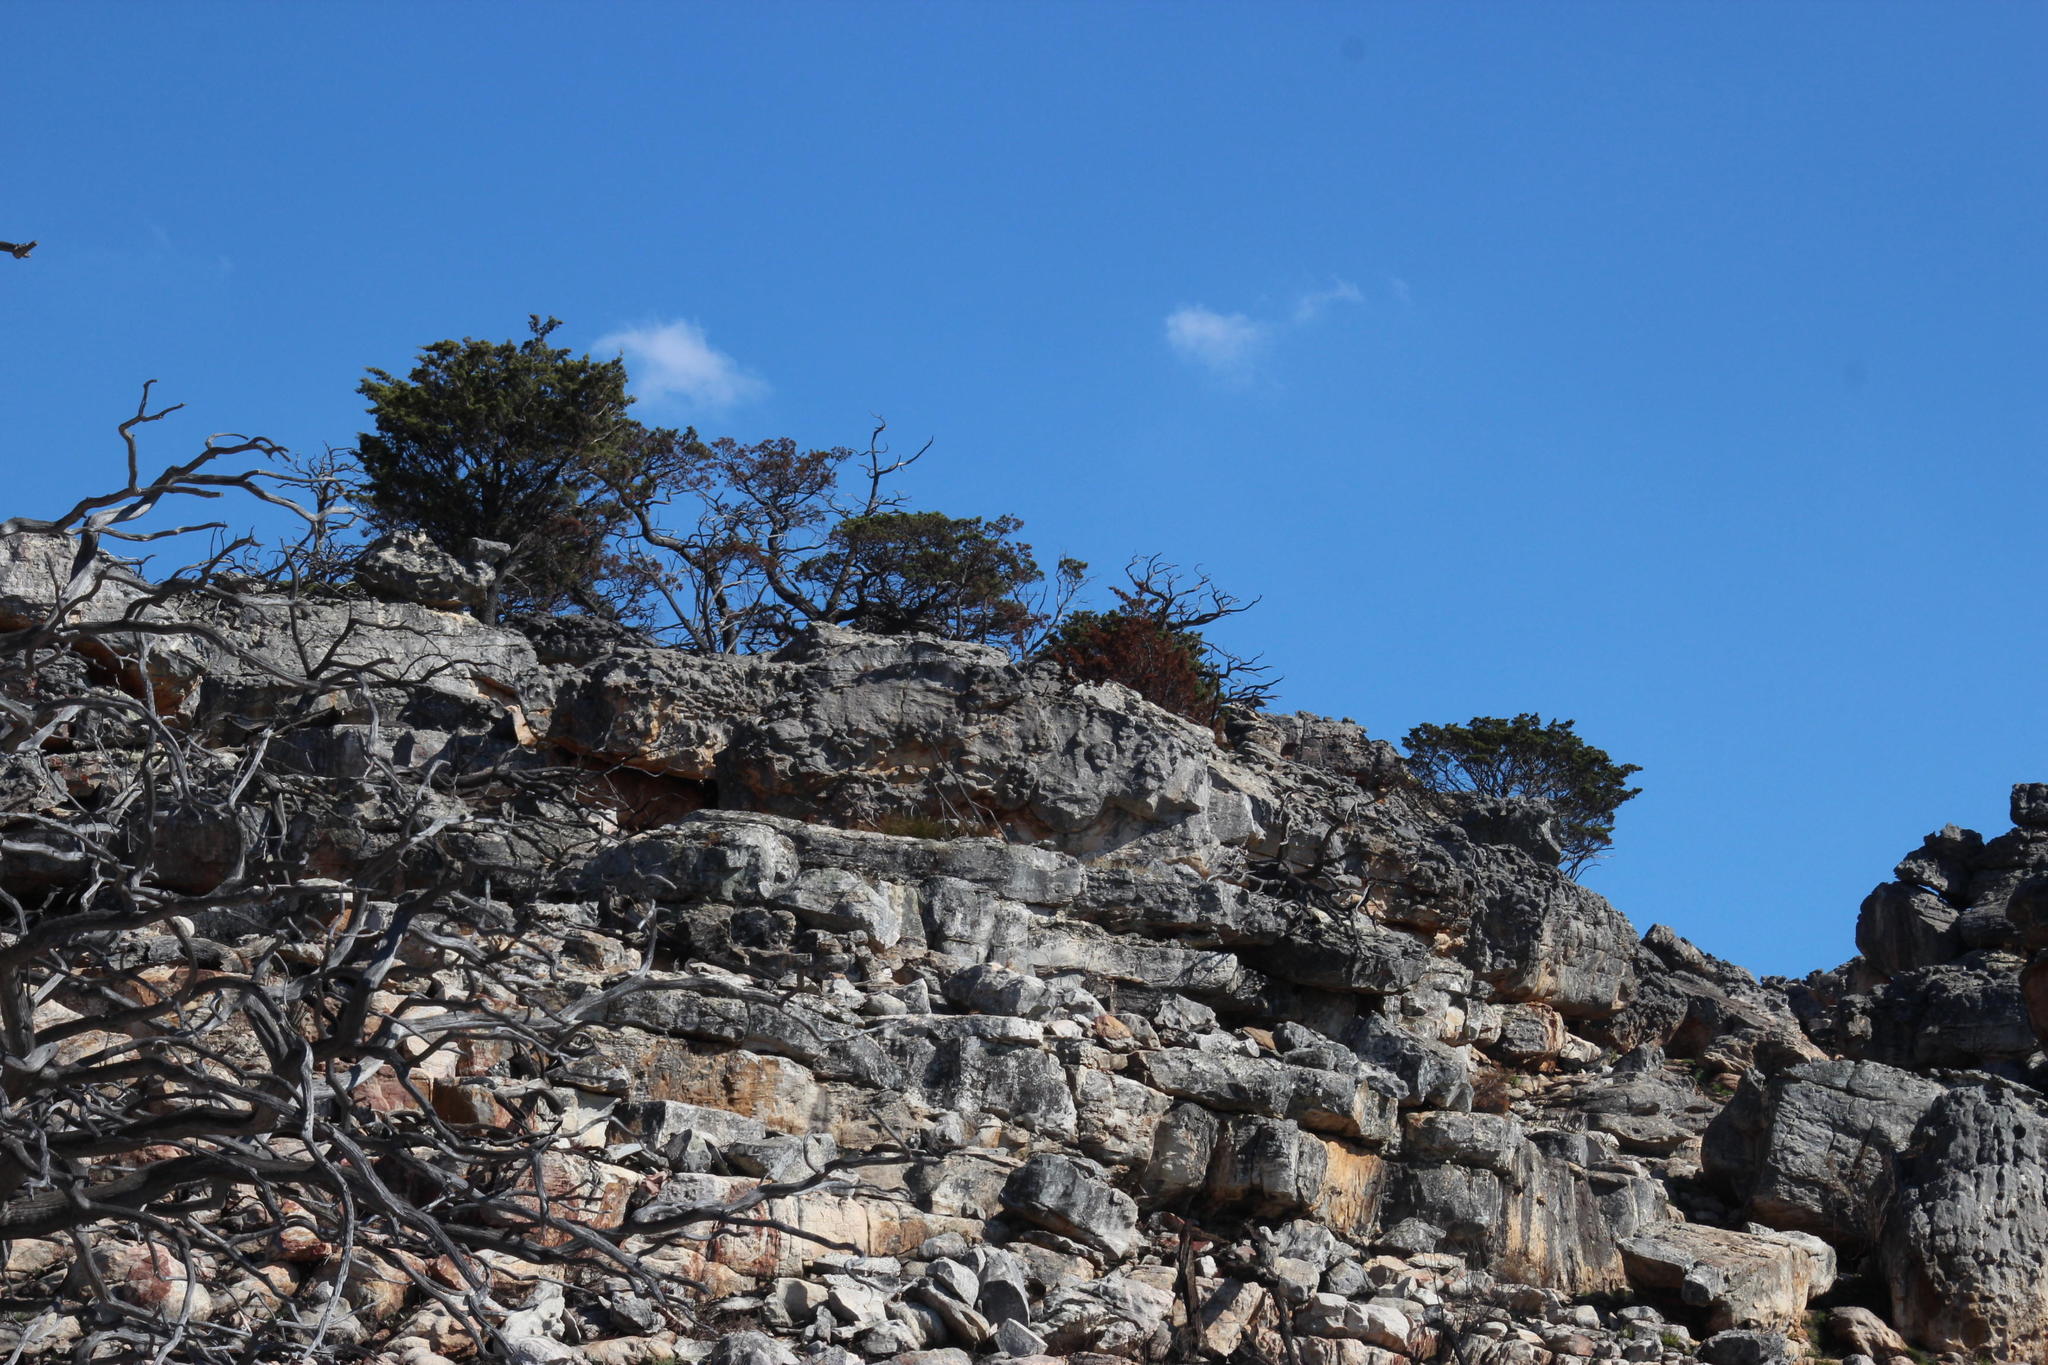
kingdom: Plantae
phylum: Tracheophyta
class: Pinopsida
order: Pinales
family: Cupressaceae
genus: Widdringtonia
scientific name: Widdringtonia nodiflora
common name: Cape cypress
